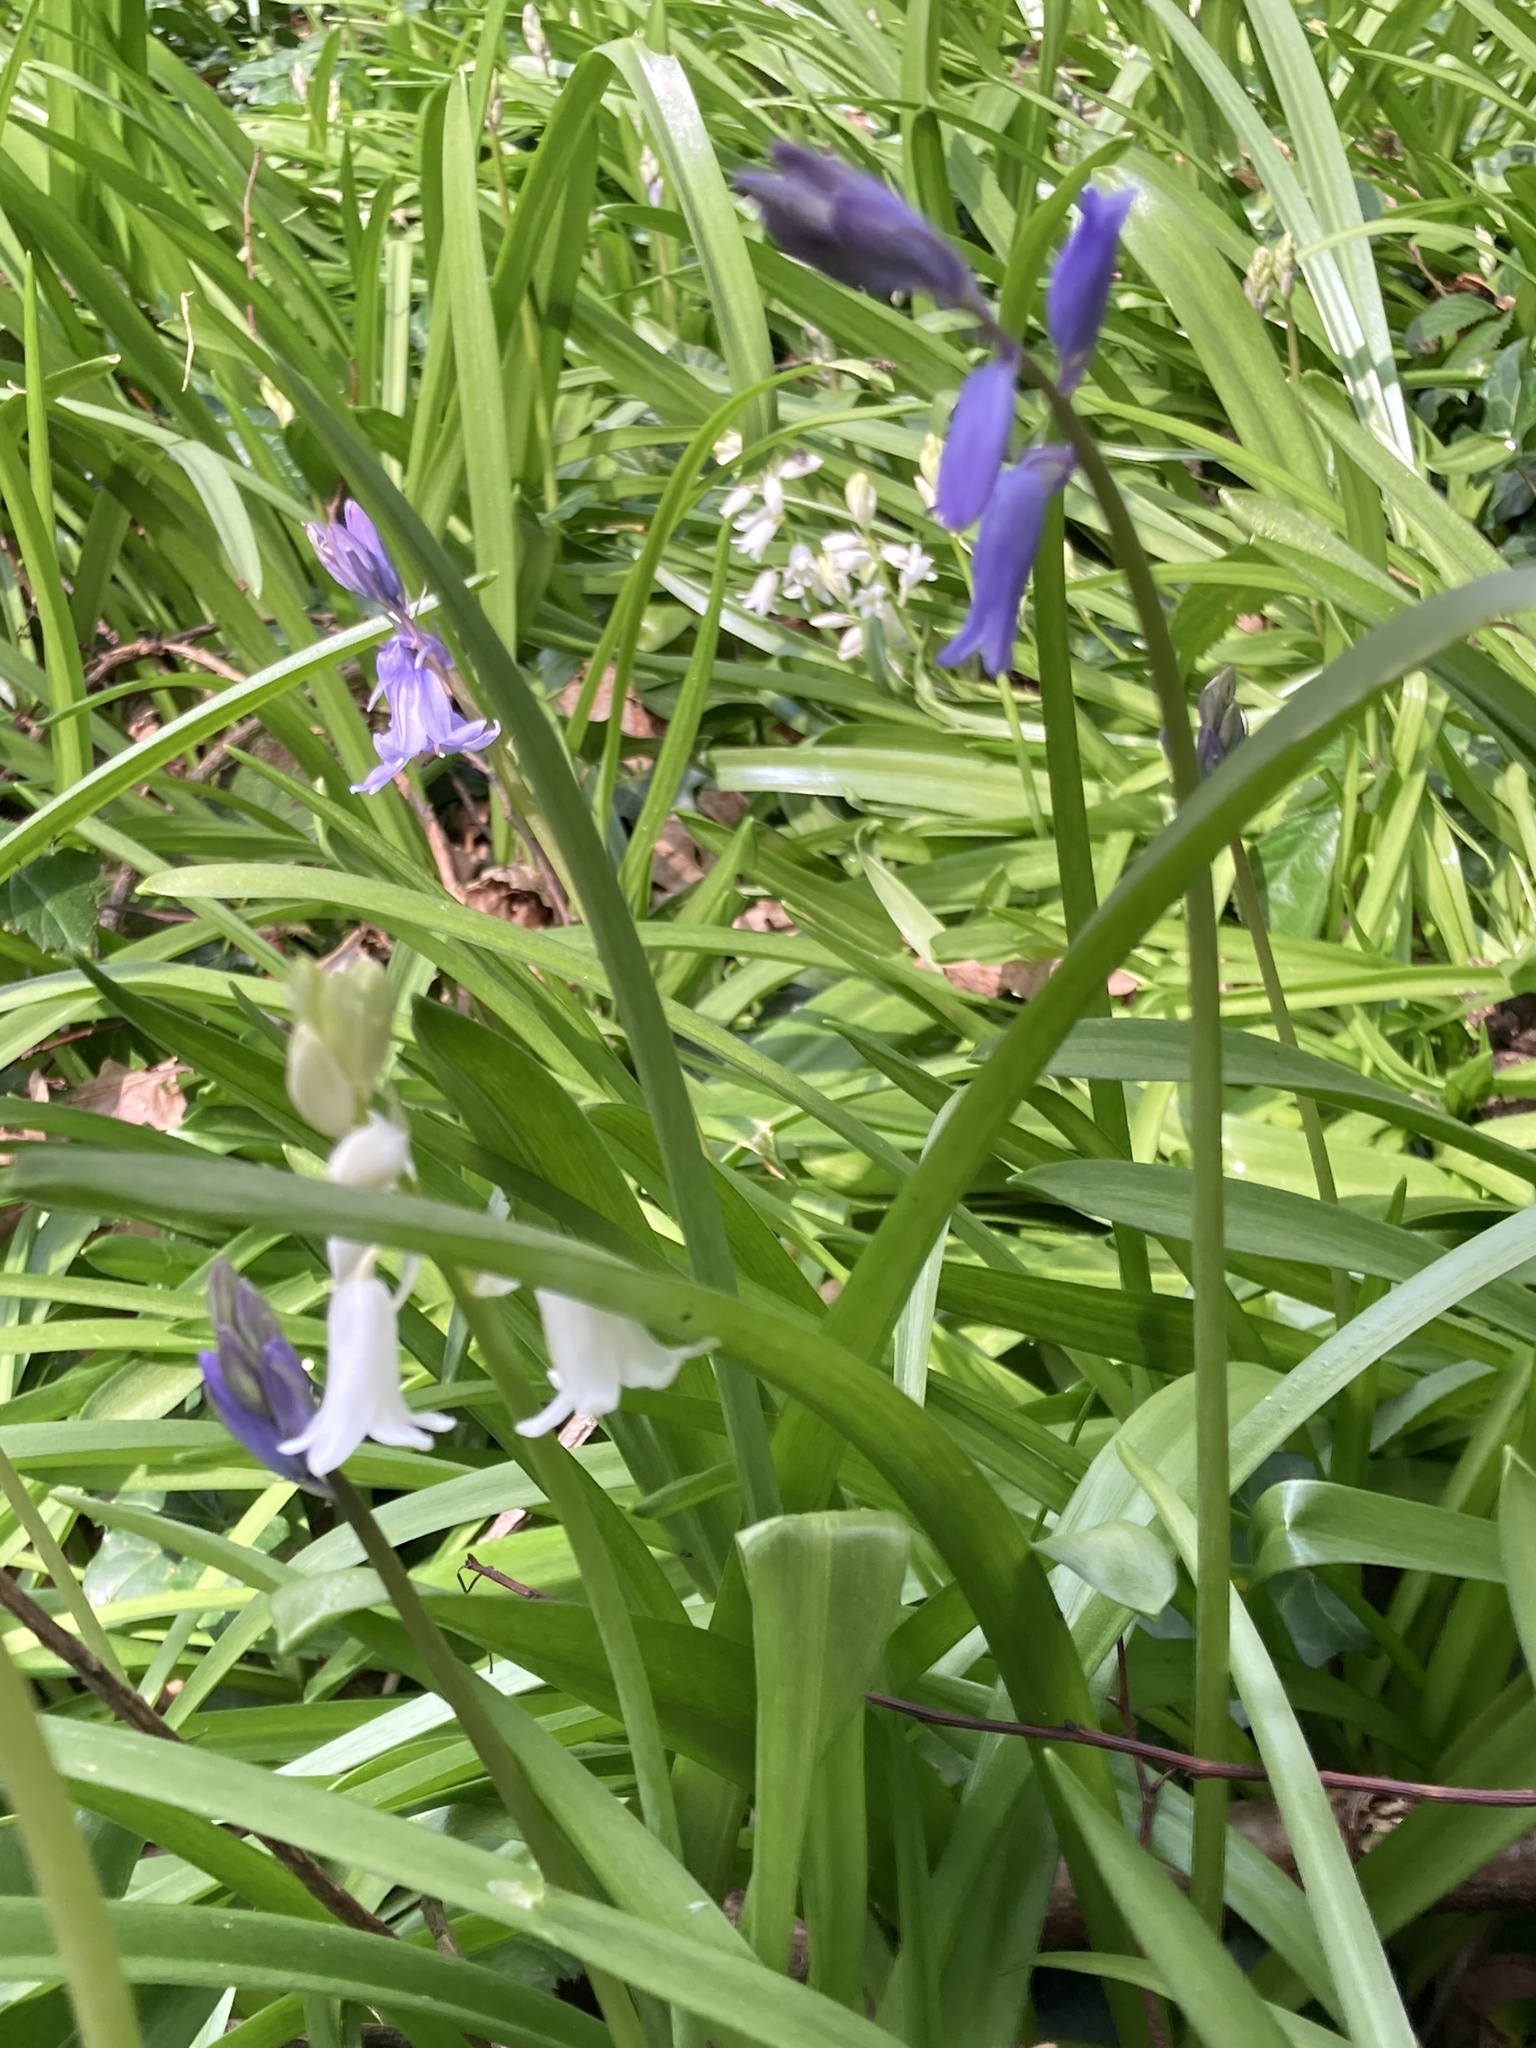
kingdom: Plantae
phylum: Tracheophyta
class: Liliopsida
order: Asparagales
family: Asparagaceae
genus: Hyacinthoides
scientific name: Hyacinthoides non-scripta
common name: Bluebell
